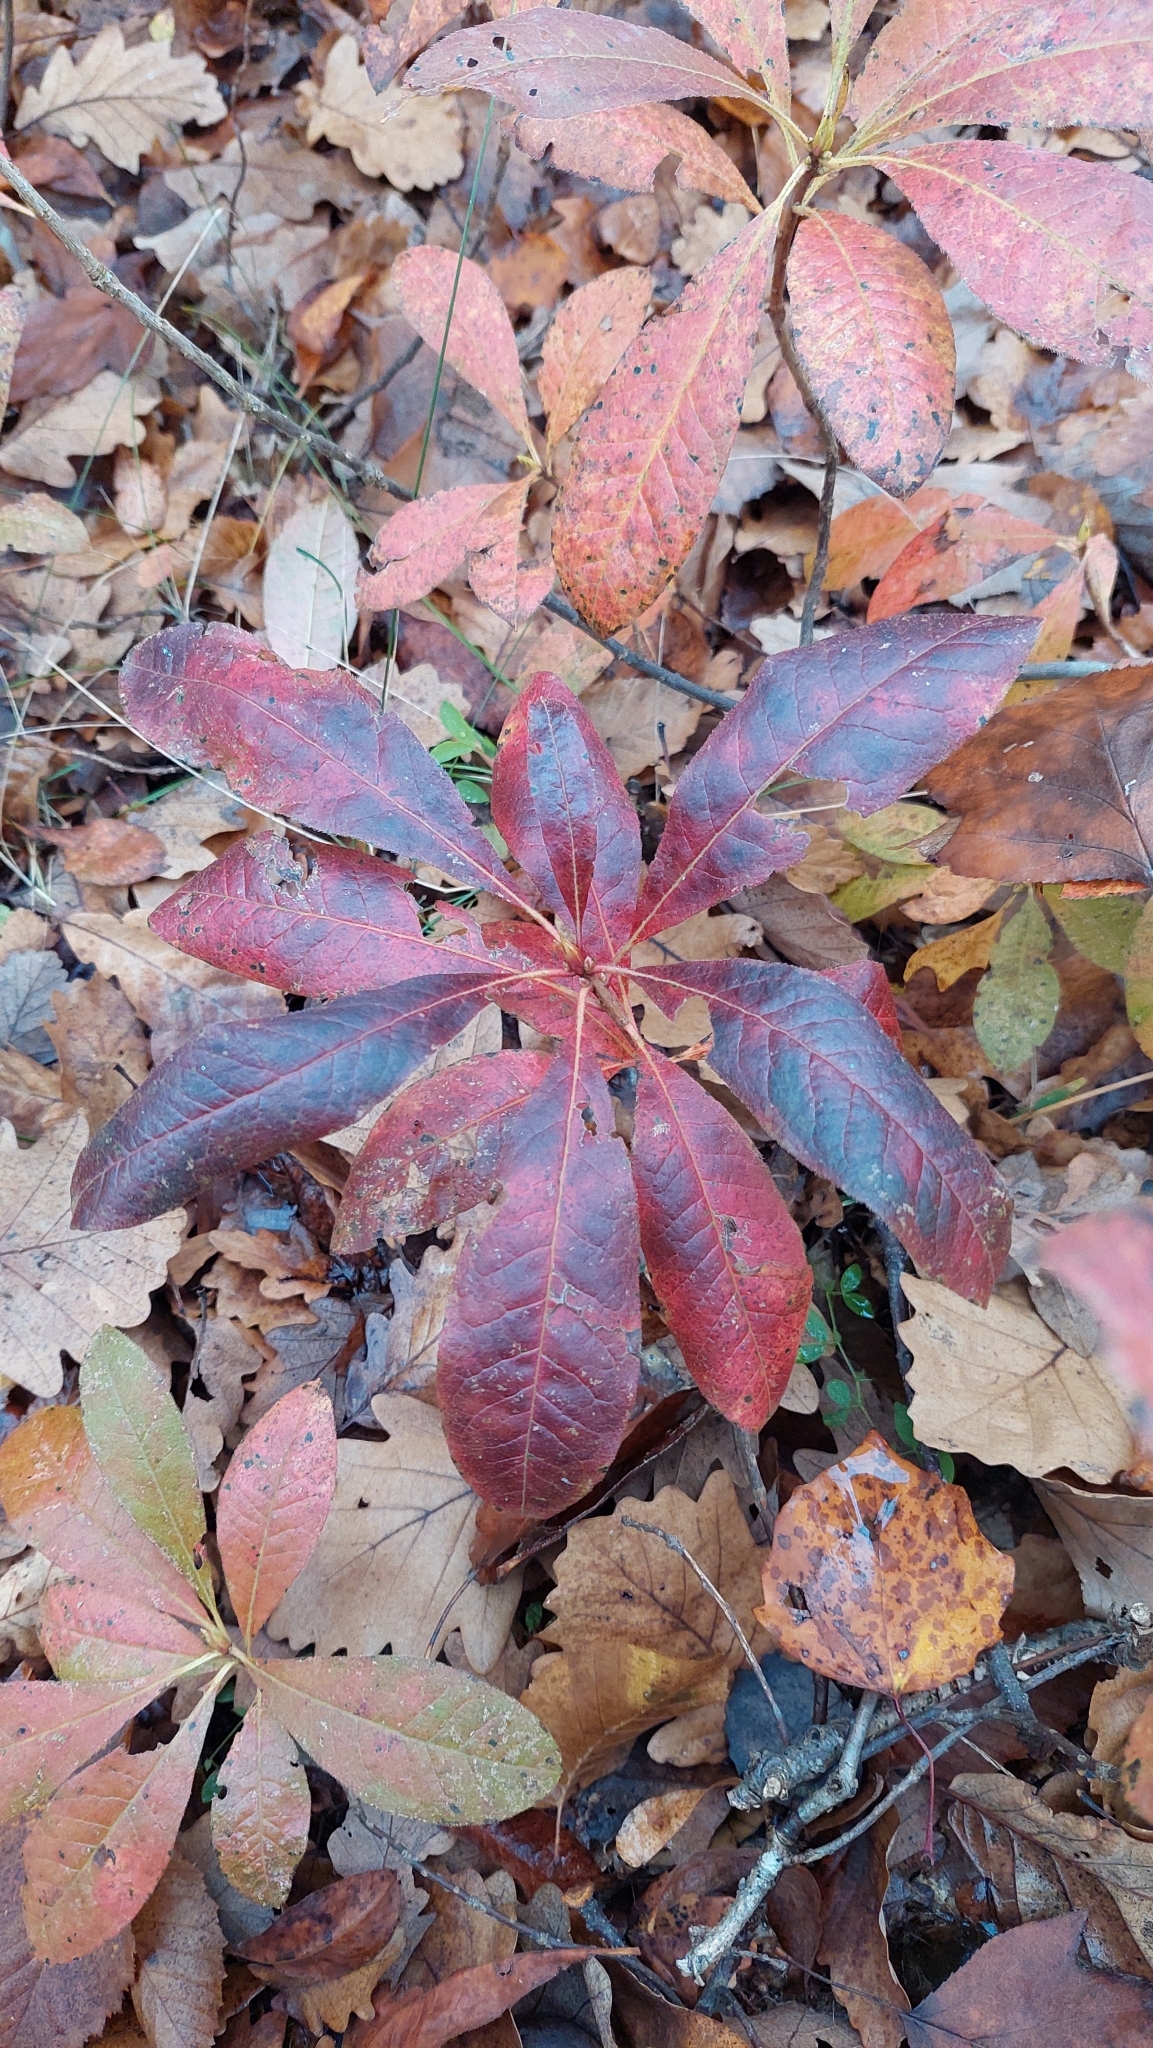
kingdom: Plantae
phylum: Tracheophyta
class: Magnoliopsida
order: Ericales
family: Ericaceae
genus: Rhododendron
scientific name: Rhododendron luteum
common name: Yellow azalea
